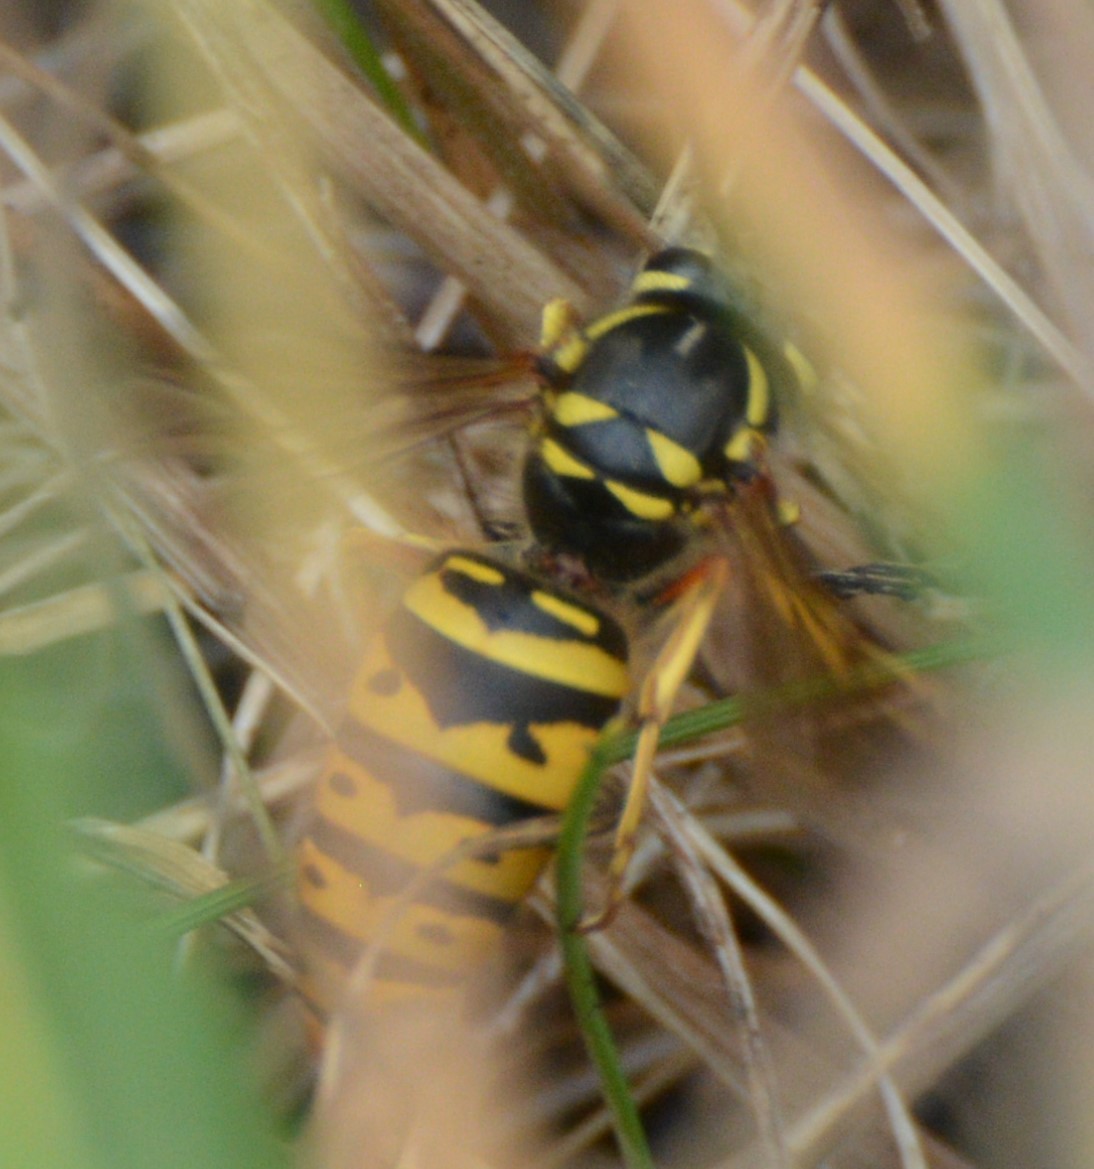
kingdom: Animalia
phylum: Arthropoda
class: Insecta
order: Hymenoptera
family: Vespidae
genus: Vespula
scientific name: Vespula maculifrons
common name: Eastern yellowjacket
